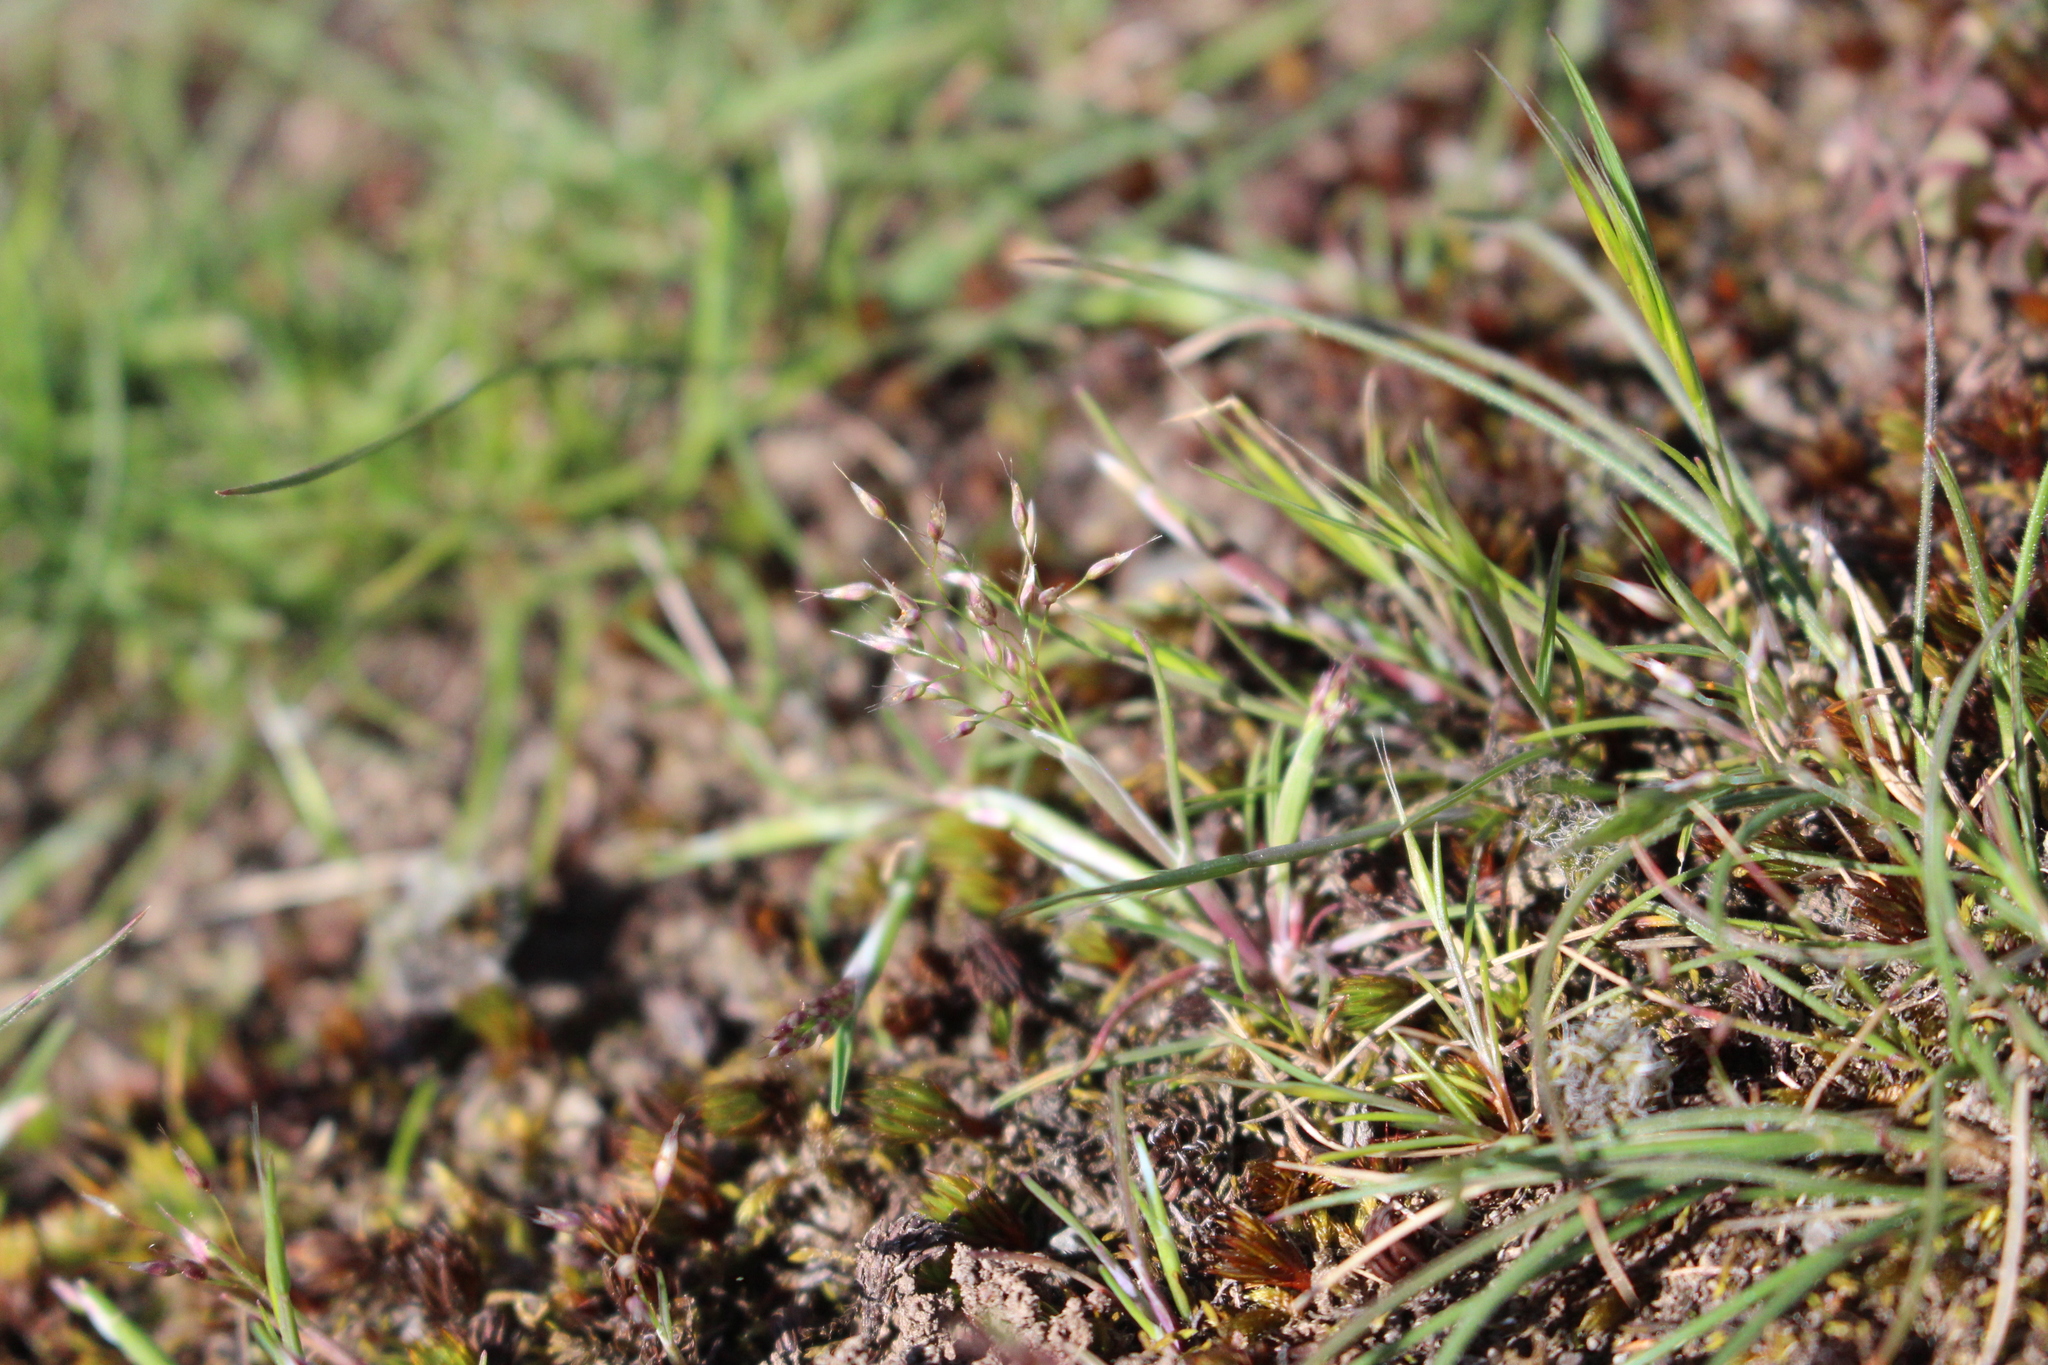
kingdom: Plantae
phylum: Tracheophyta
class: Liliopsida
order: Poales
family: Poaceae
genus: Aira
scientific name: Aira caryophyllea
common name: Silver hairgrass
